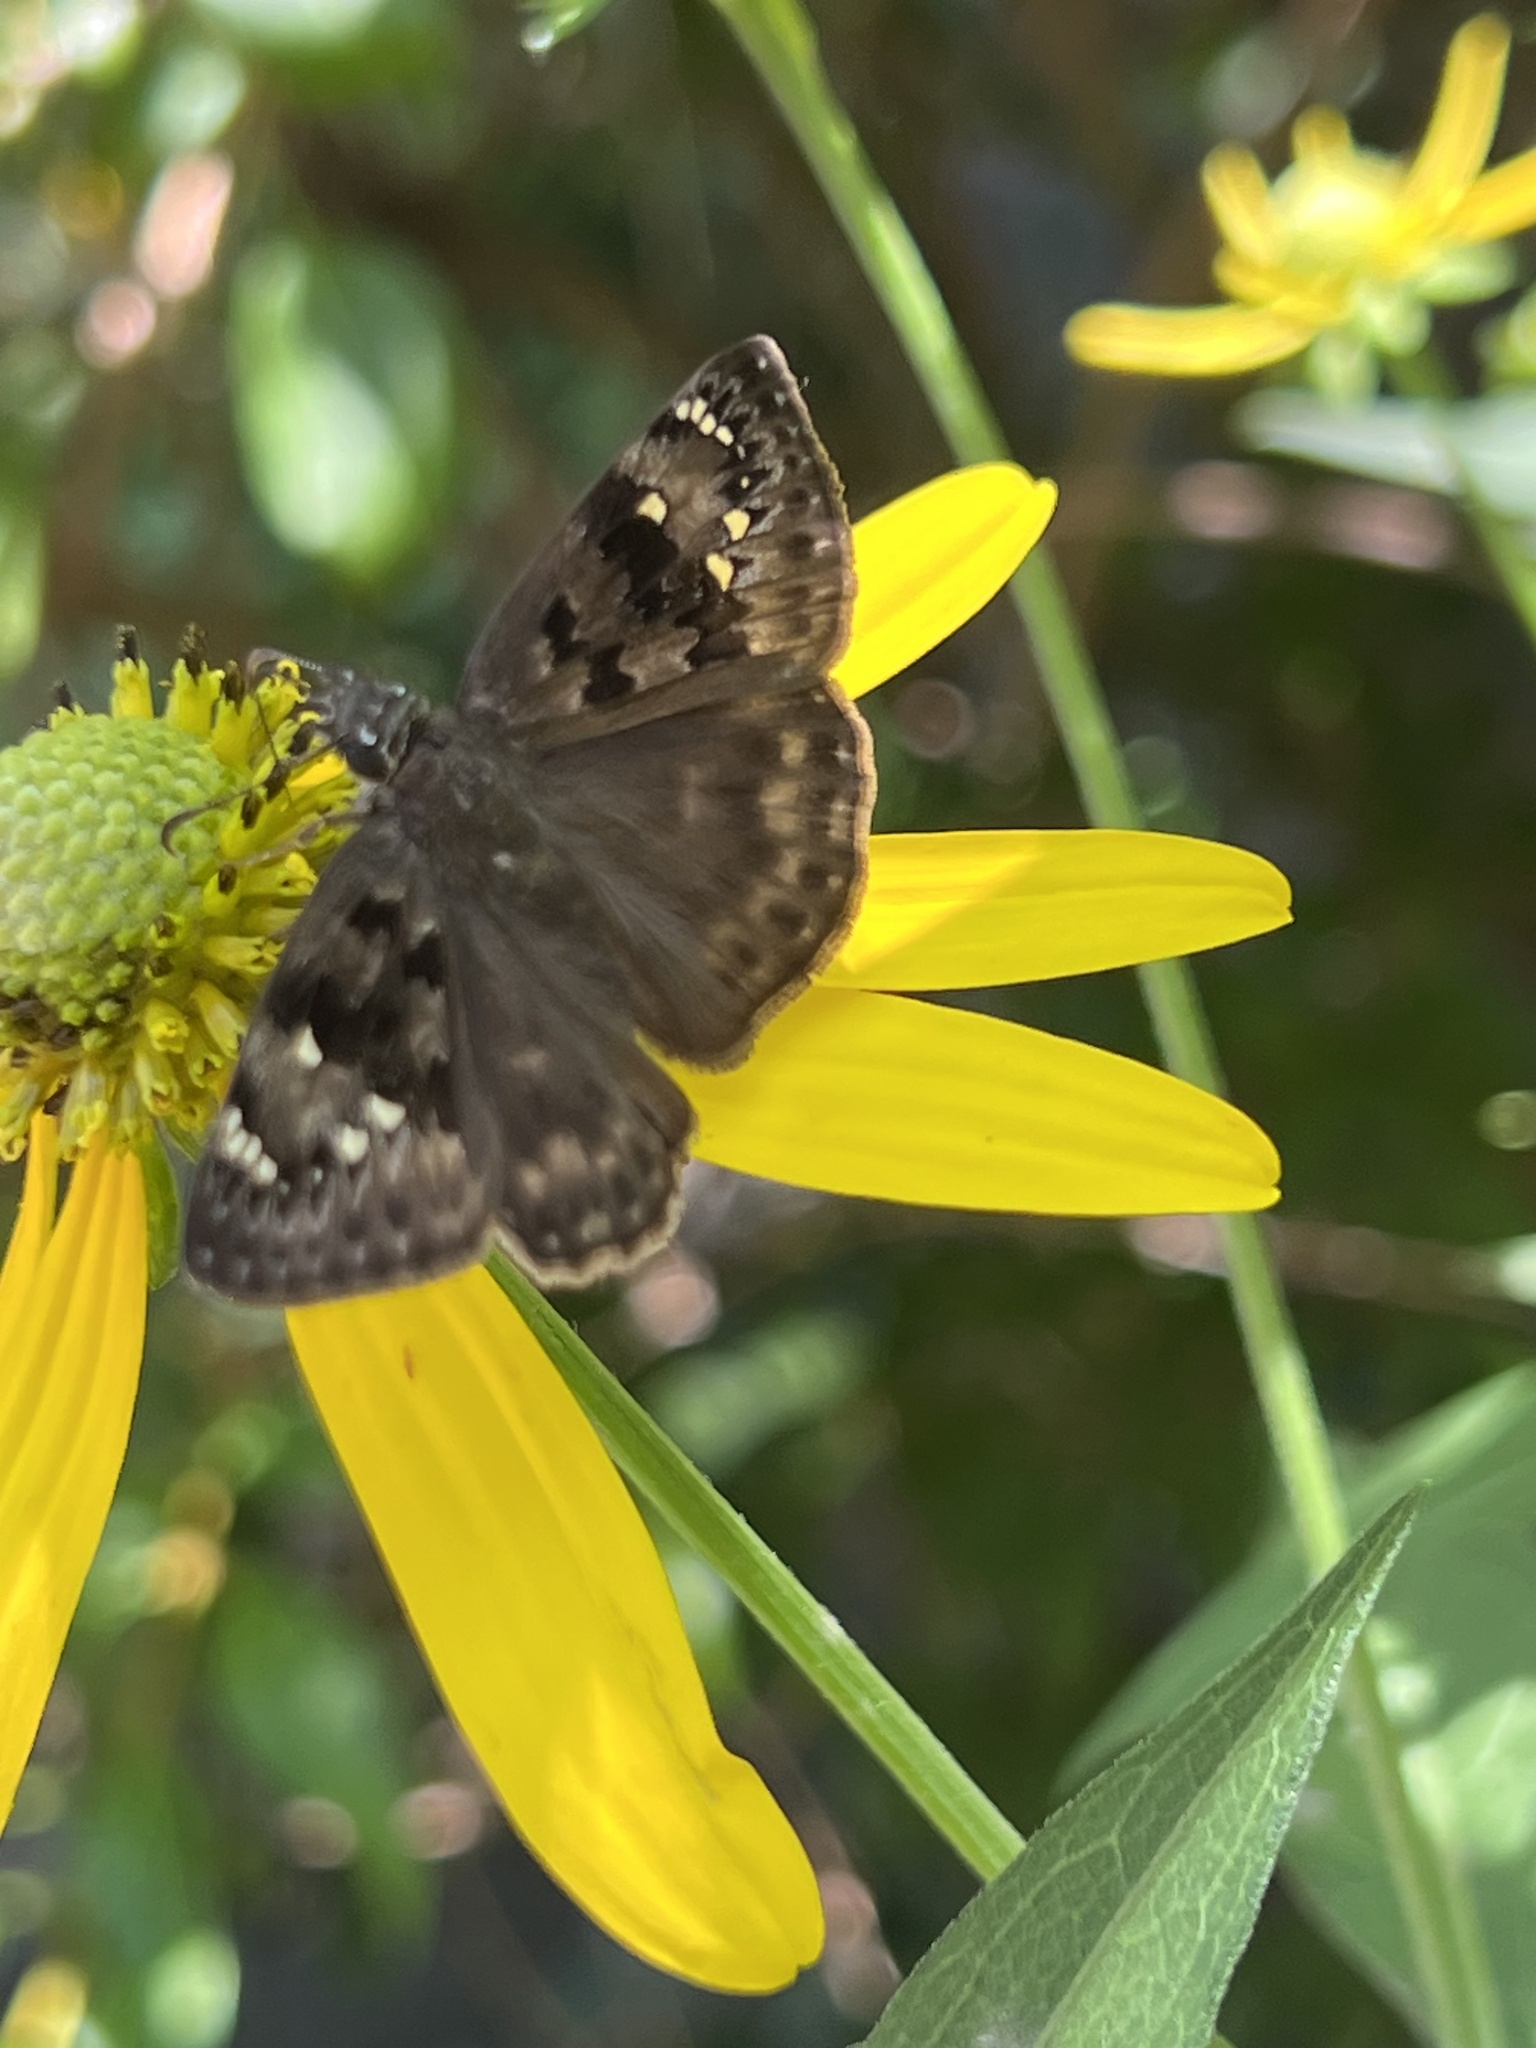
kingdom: Animalia
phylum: Arthropoda
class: Insecta
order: Lepidoptera
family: Hesperiidae
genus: Erynnis
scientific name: Erynnis horatius
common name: Horace's duskywing
